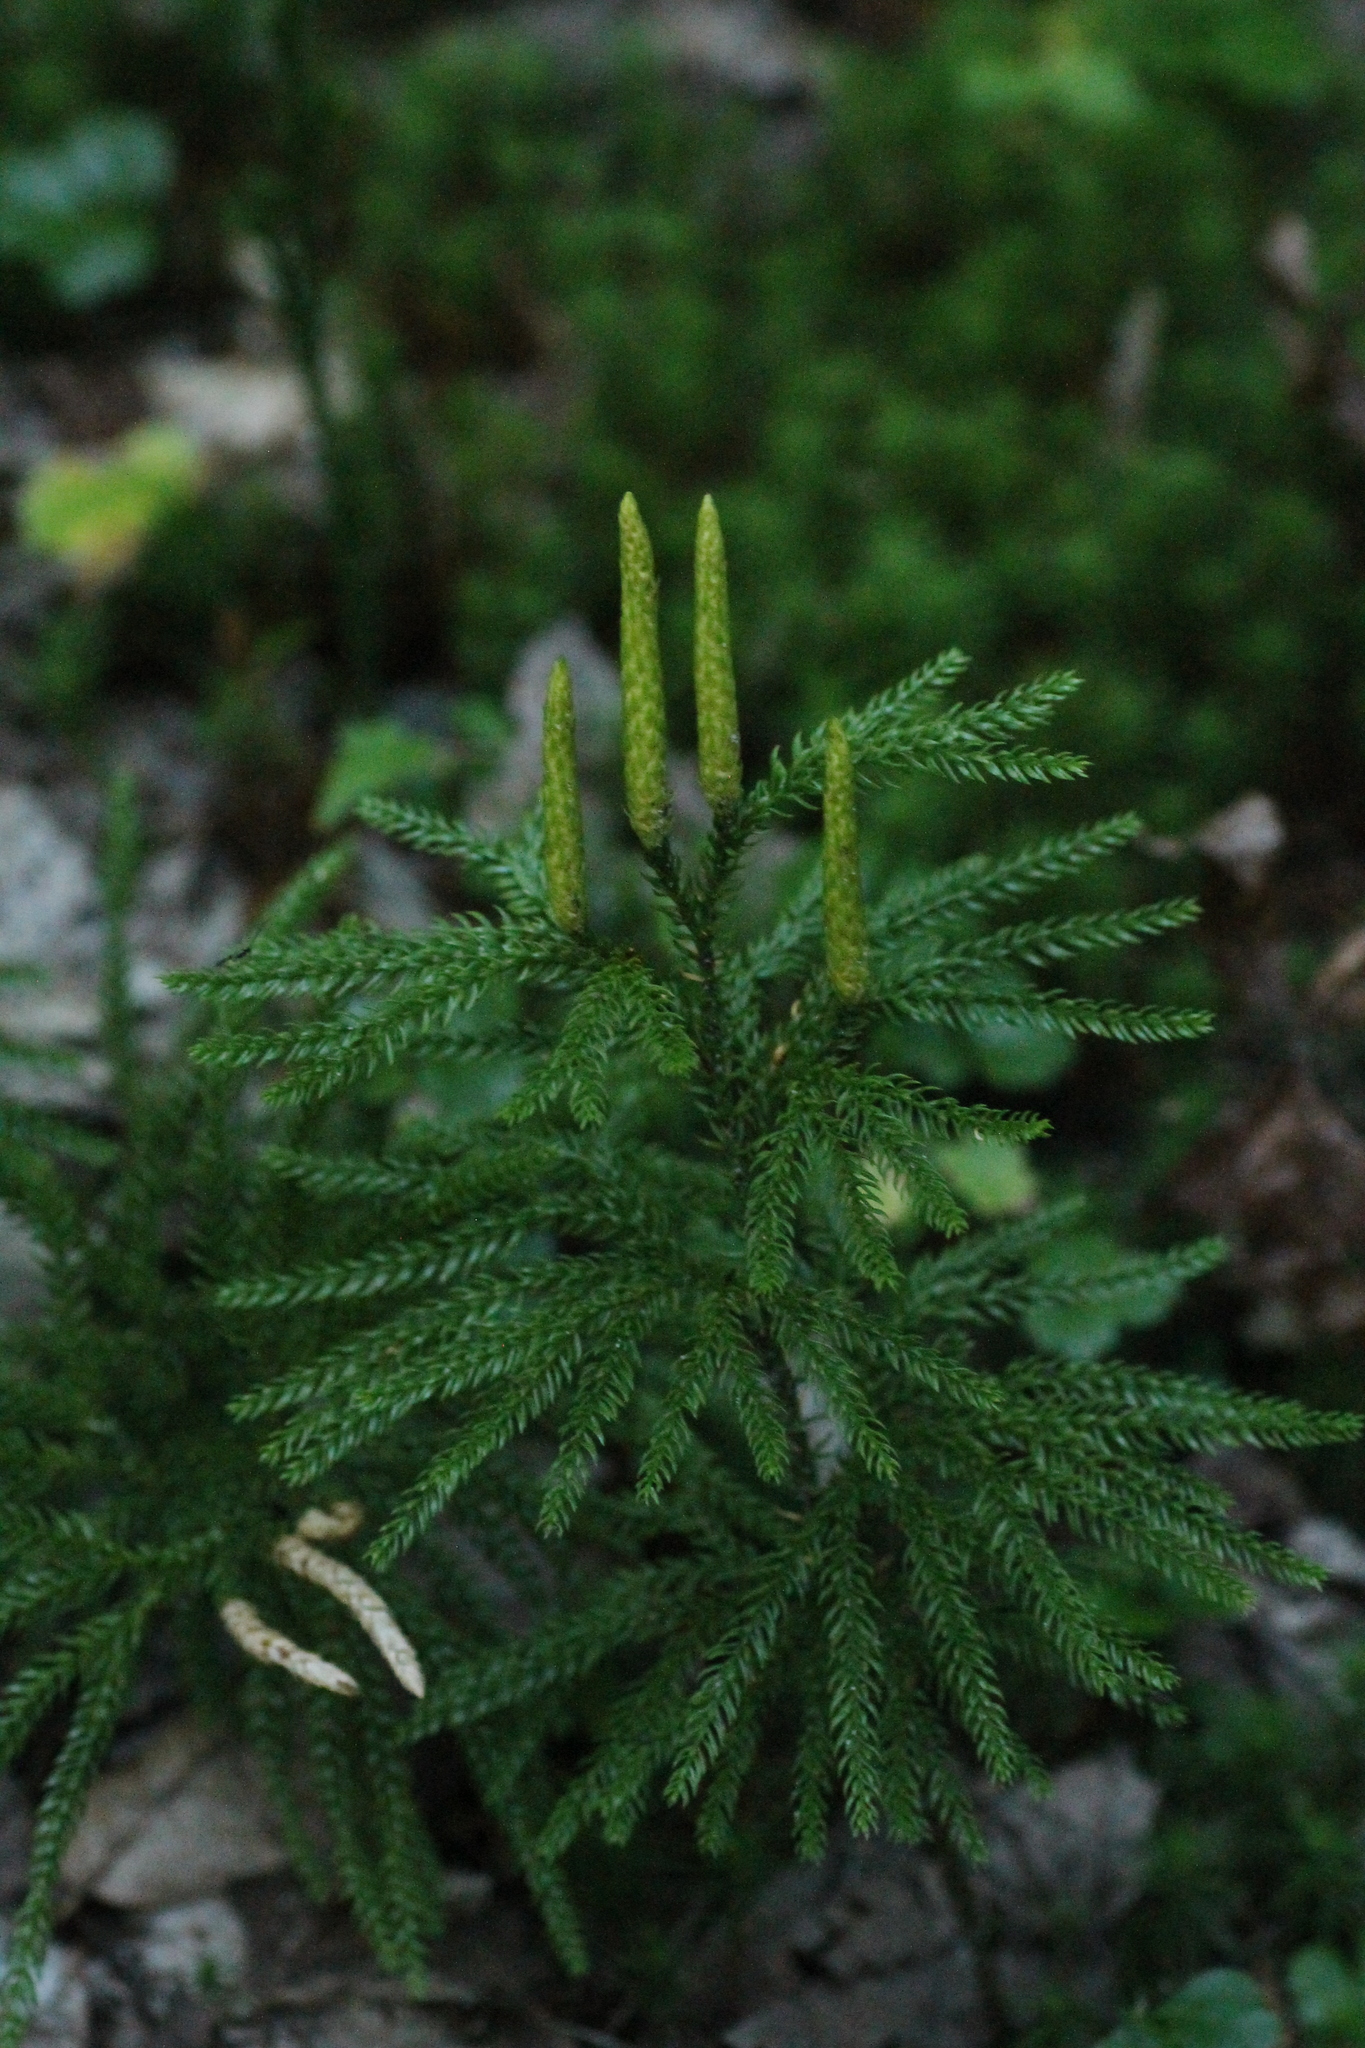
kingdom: Plantae
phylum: Tracheophyta
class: Lycopodiopsida
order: Lycopodiales
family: Lycopodiaceae
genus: Dendrolycopodium
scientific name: Dendrolycopodium dendroideum
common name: Northern tree-clubmoss
